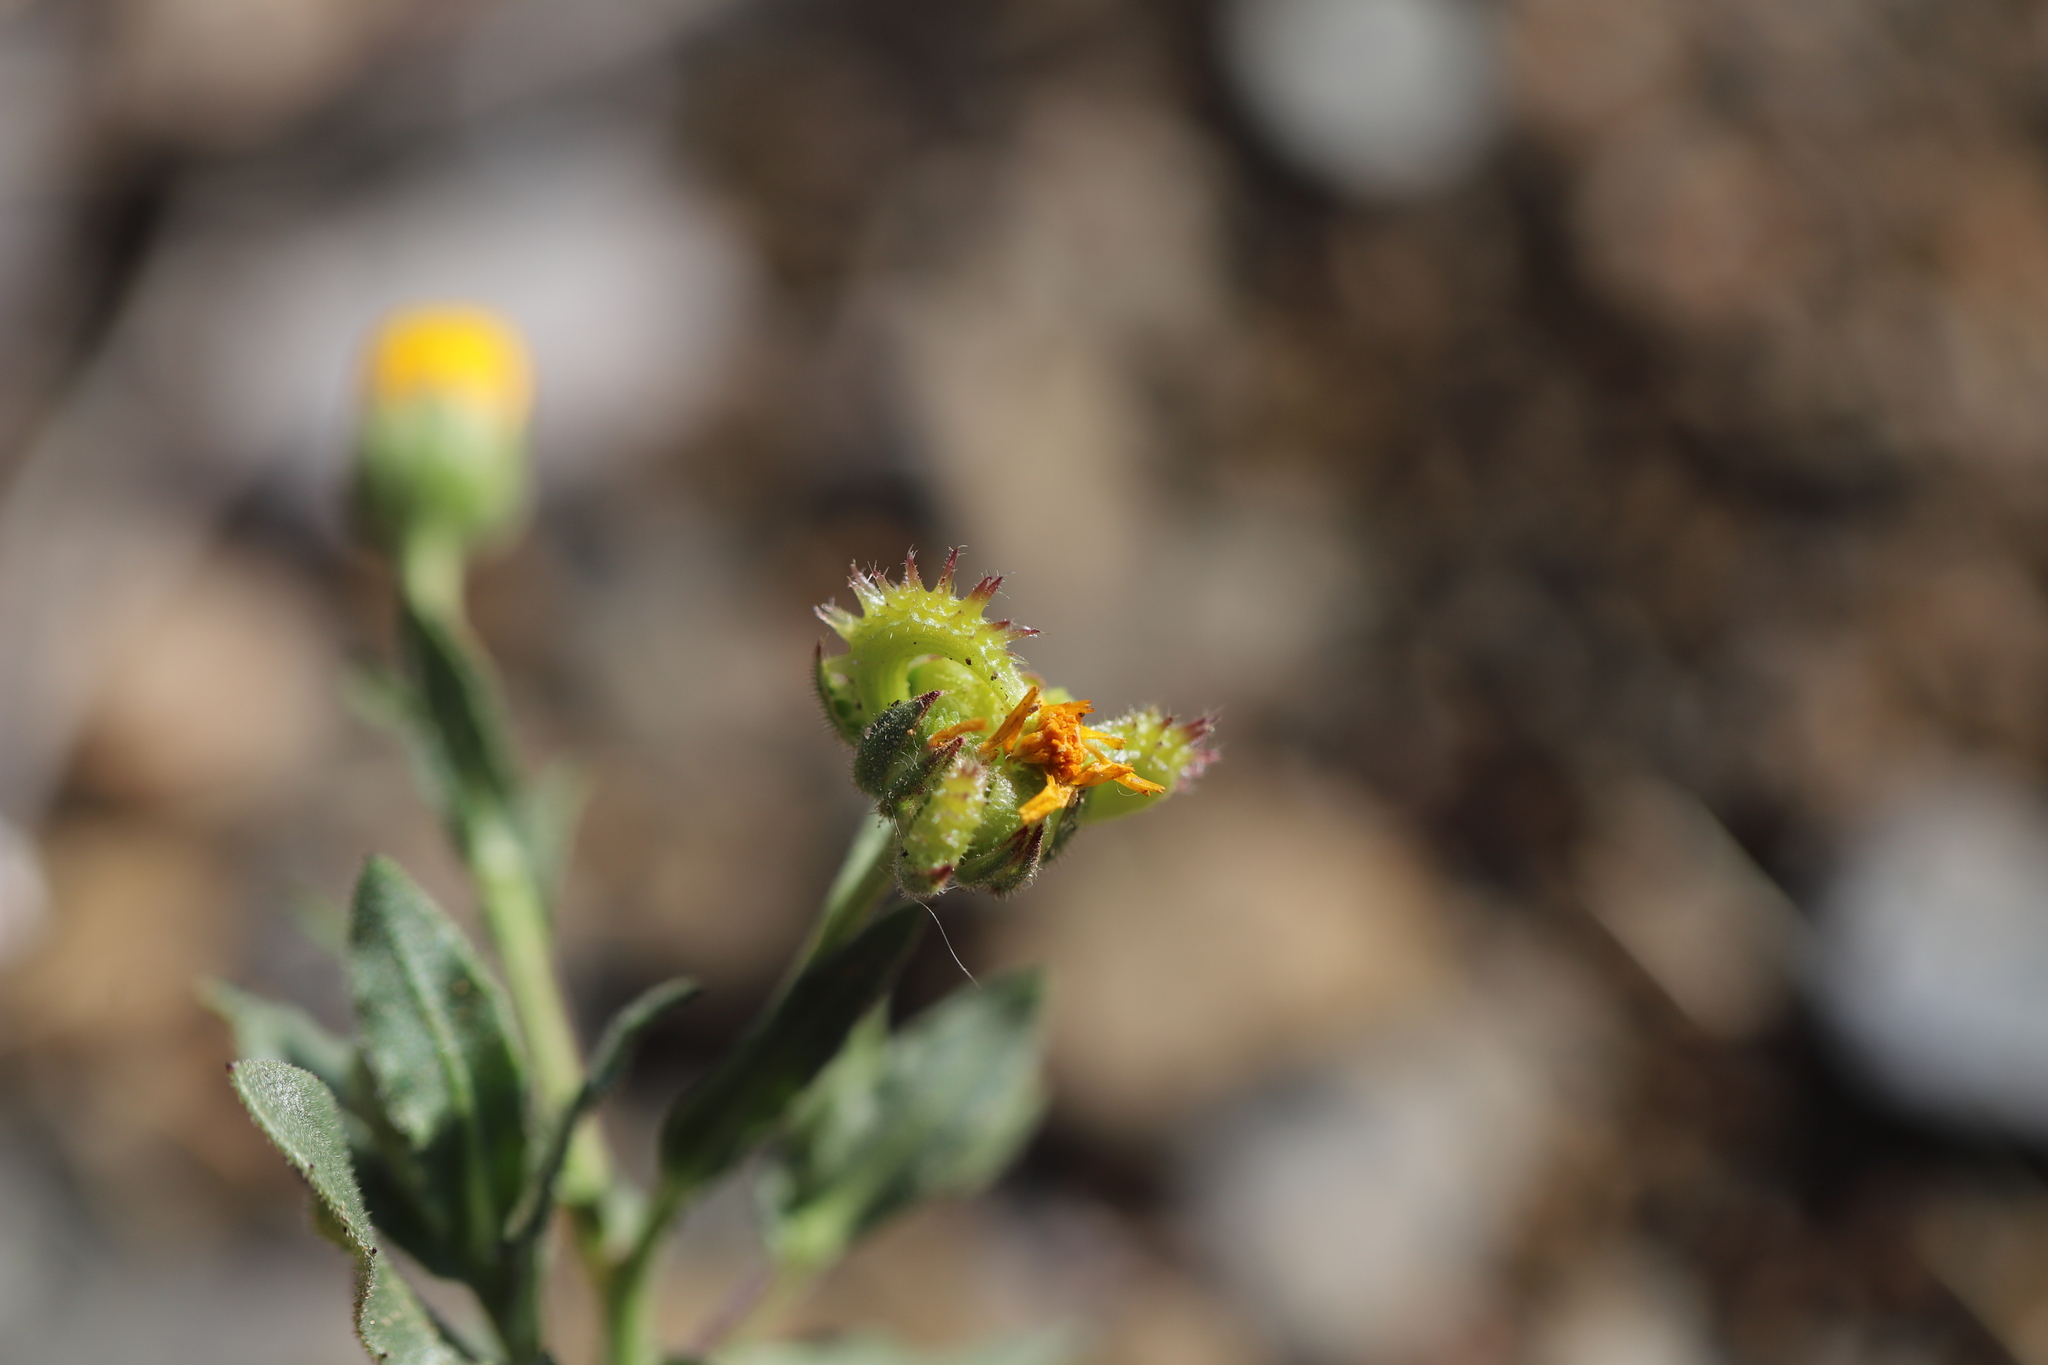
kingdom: Plantae
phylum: Tracheophyta
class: Magnoliopsida
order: Asterales
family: Asteraceae
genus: Calendula
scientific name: Calendula arvensis
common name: Field marigold
